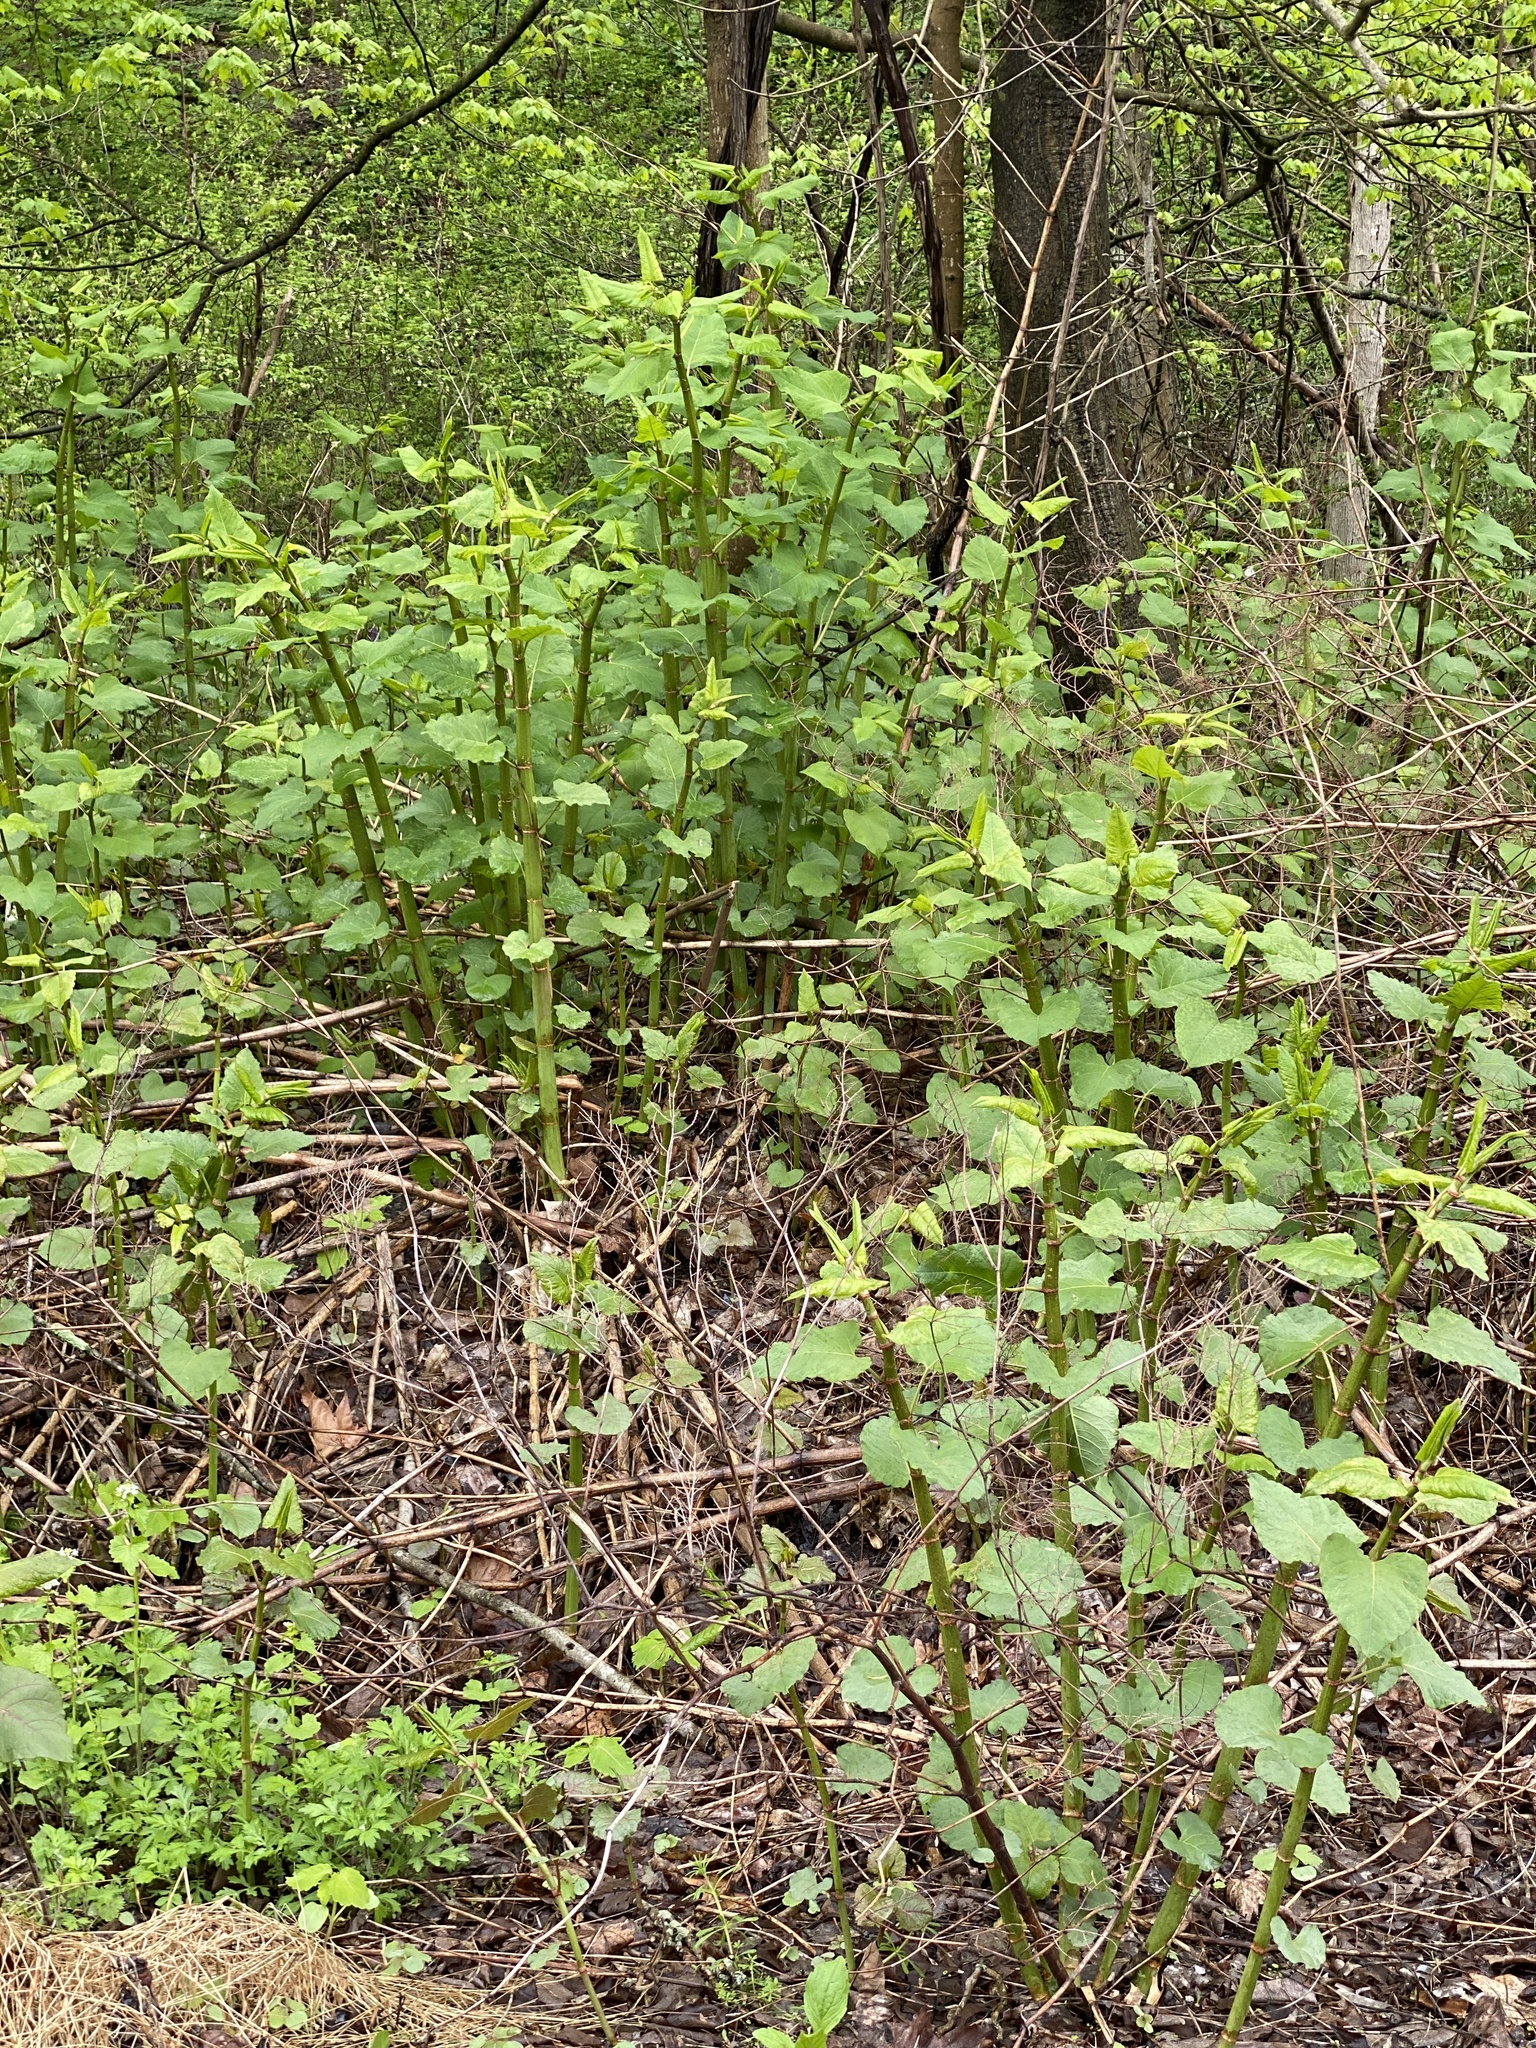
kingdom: Plantae
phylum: Tracheophyta
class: Magnoliopsida
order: Caryophyllales
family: Polygonaceae
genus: Reynoutria
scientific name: Reynoutria bohemica
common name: Bohemian knotweed
